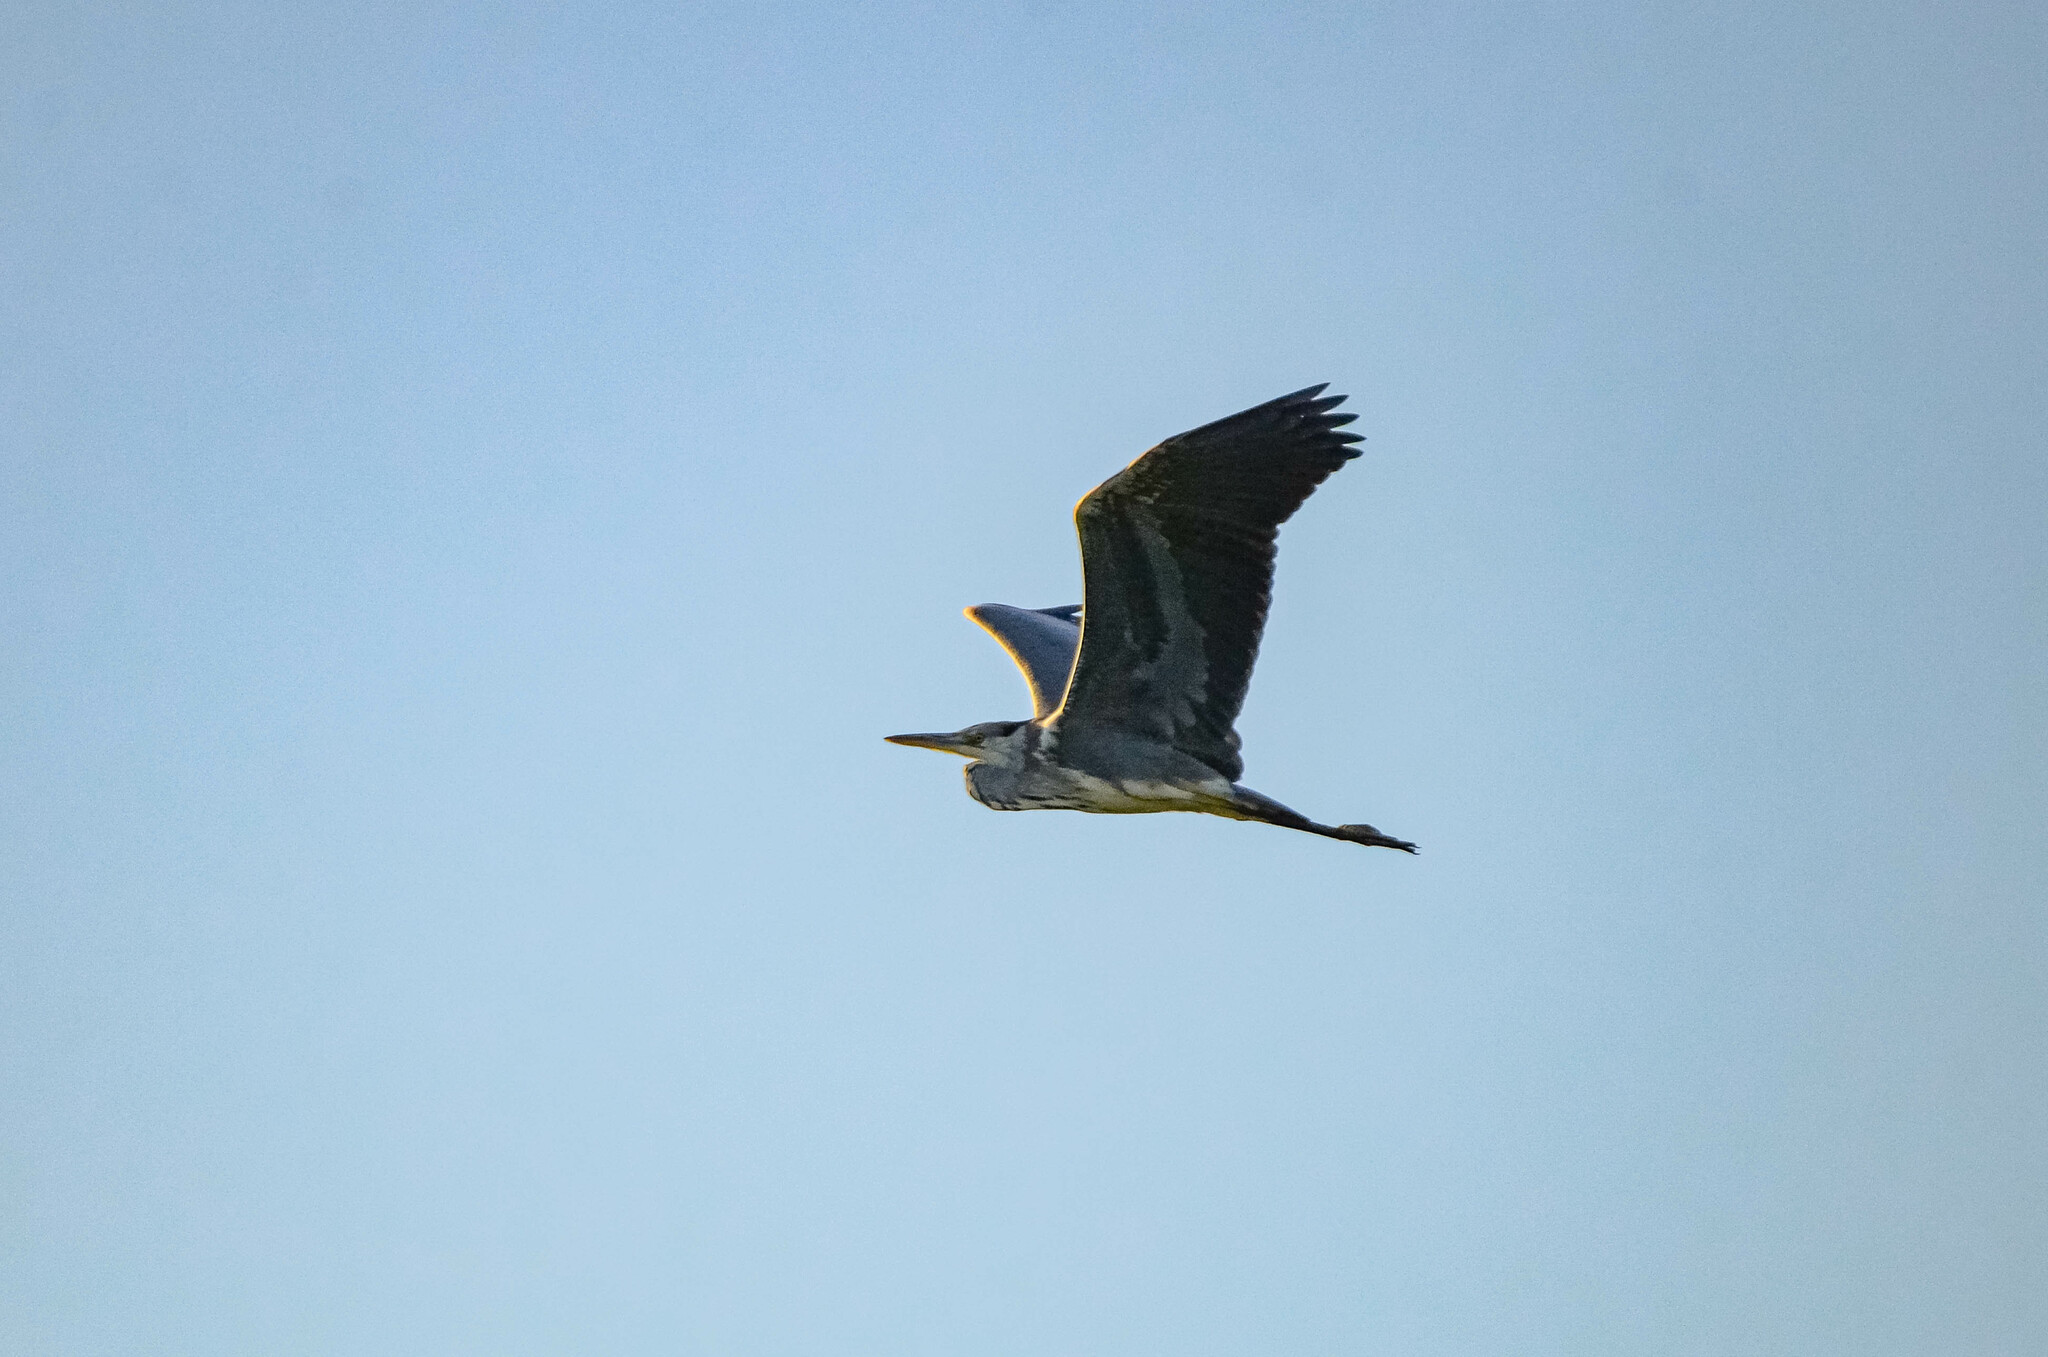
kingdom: Animalia
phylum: Chordata
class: Aves
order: Pelecaniformes
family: Ardeidae
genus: Ardea
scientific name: Ardea cinerea
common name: Grey heron
